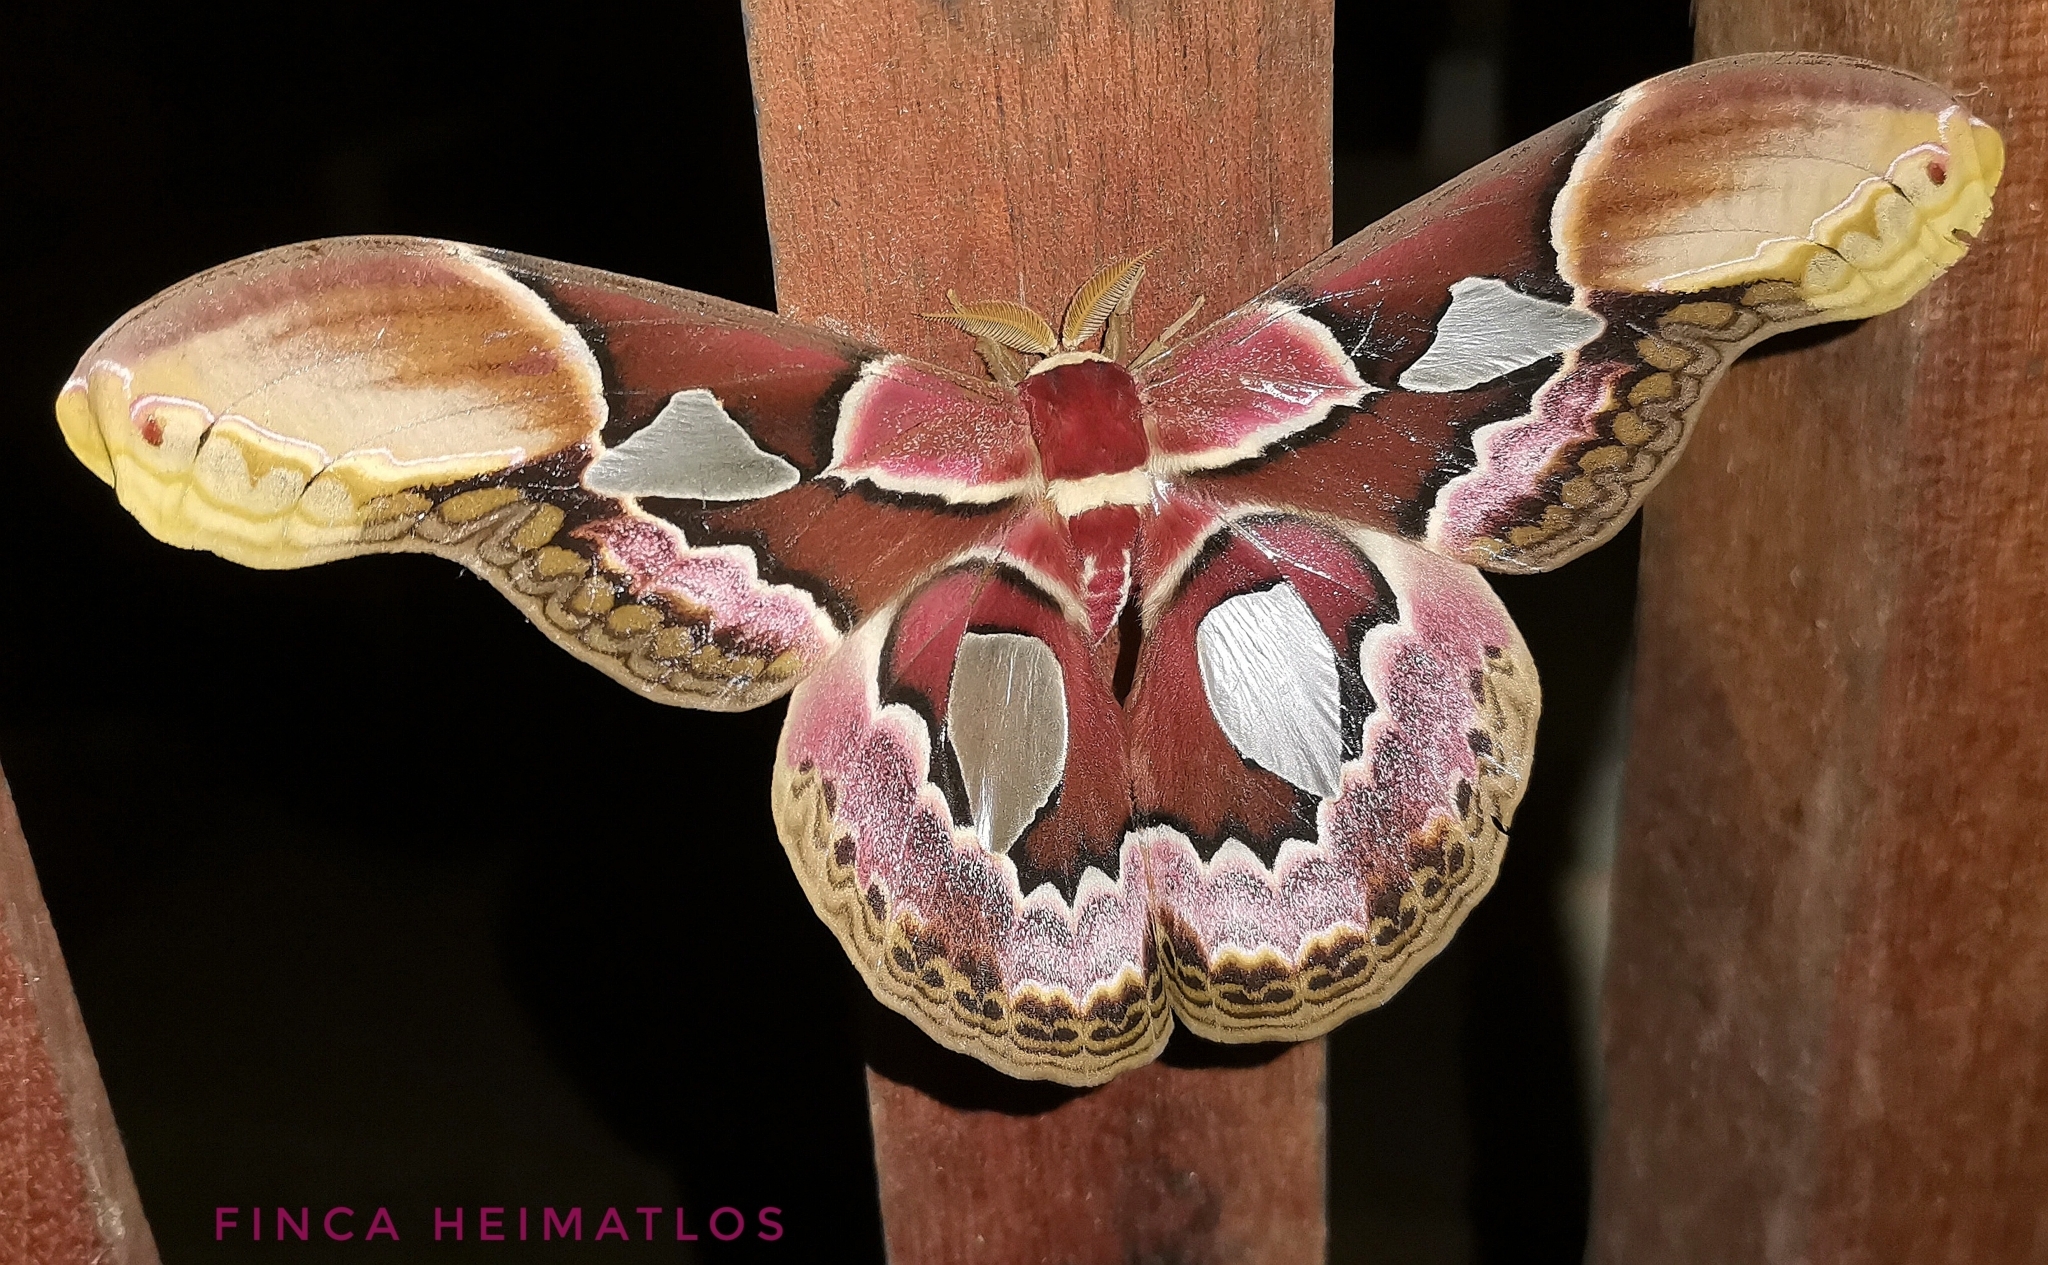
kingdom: Animalia
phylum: Arthropoda
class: Insecta
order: Lepidoptera
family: Saturniidae
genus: Rothschildia
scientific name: Rothschildia erycina
